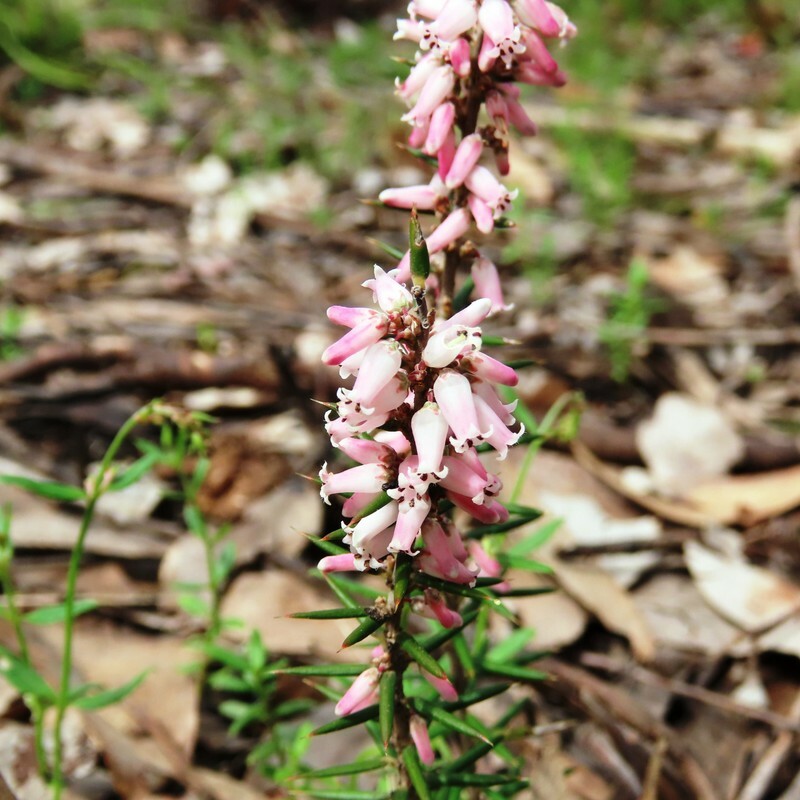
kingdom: Plantae
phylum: Tracheophyta
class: Magnoliopsida
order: Ericales
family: Ericaceae
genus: Lissanthe
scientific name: Lissanthe strigosa
